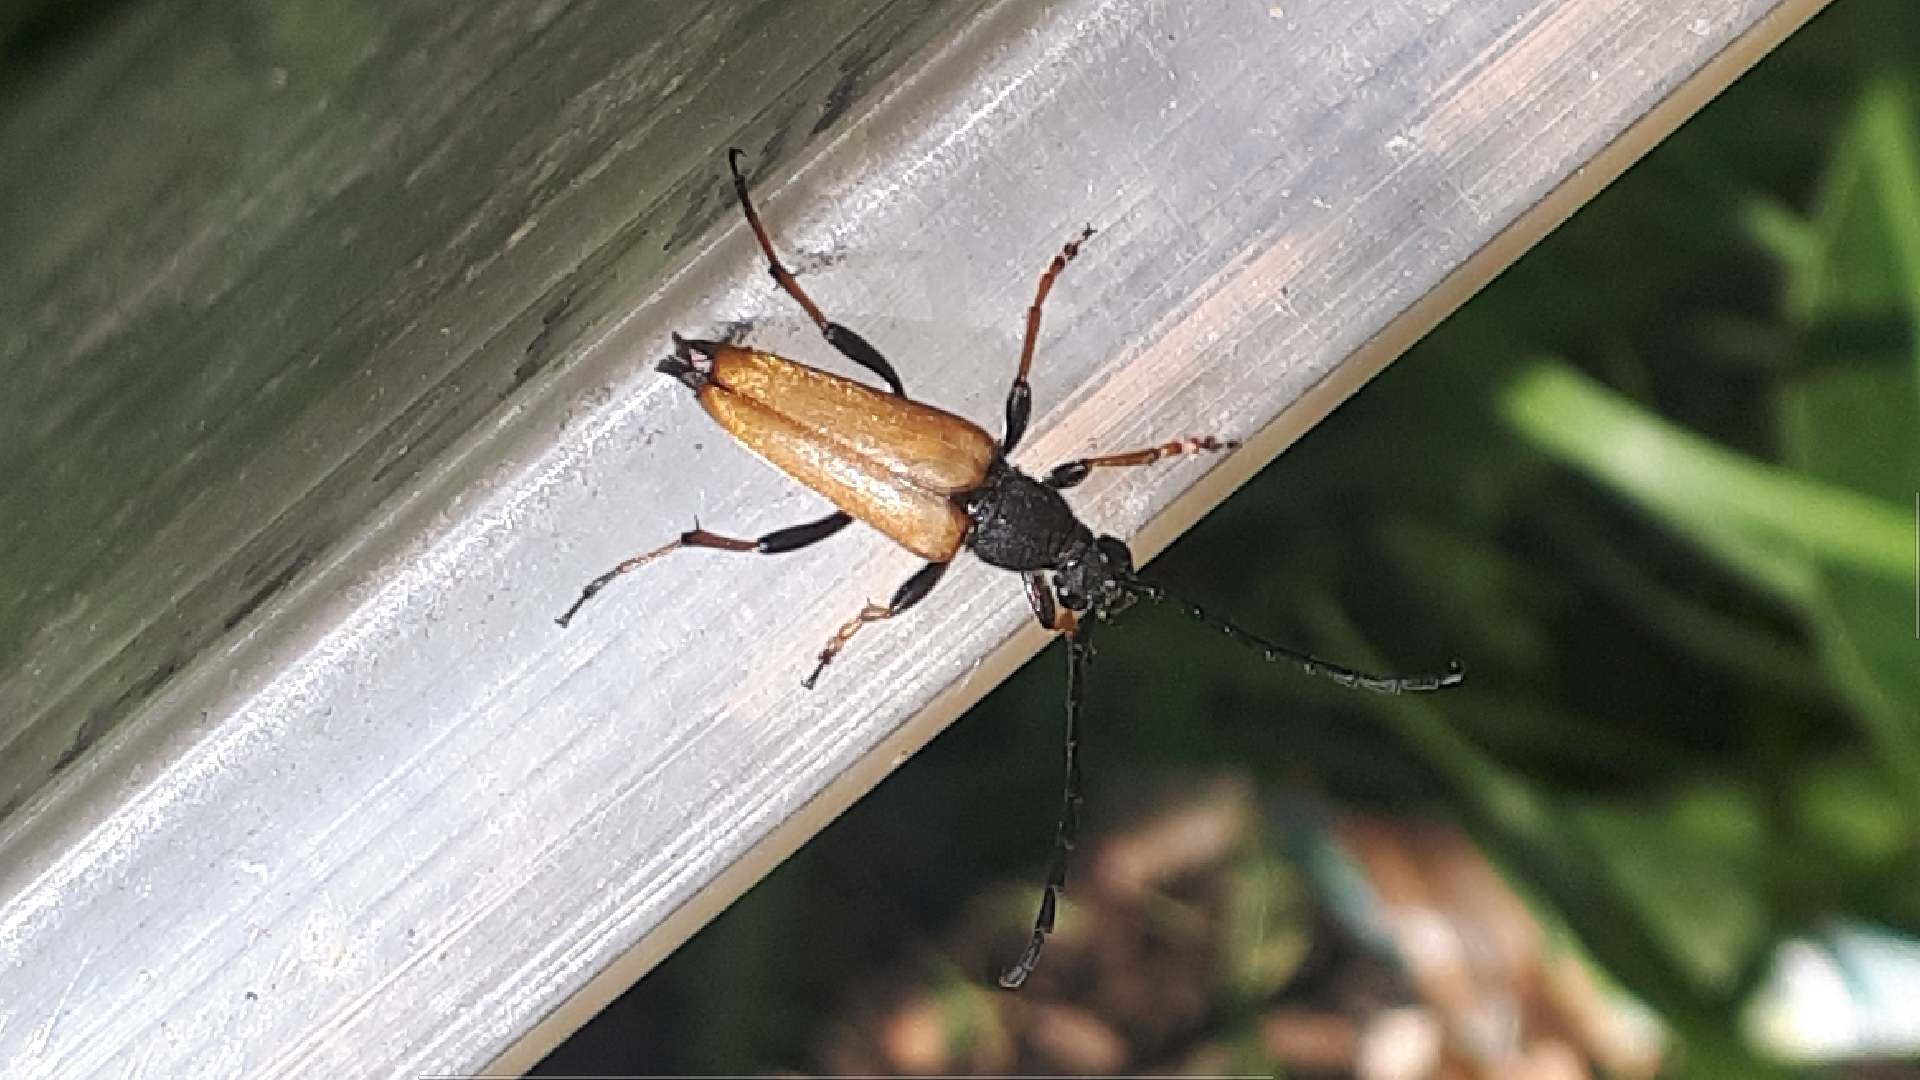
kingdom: Animalia
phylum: Arthropoda
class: Insecta
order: Coleoptera
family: Cerambycidae
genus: Stictoleptura
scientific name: Stictoleptura rubra
